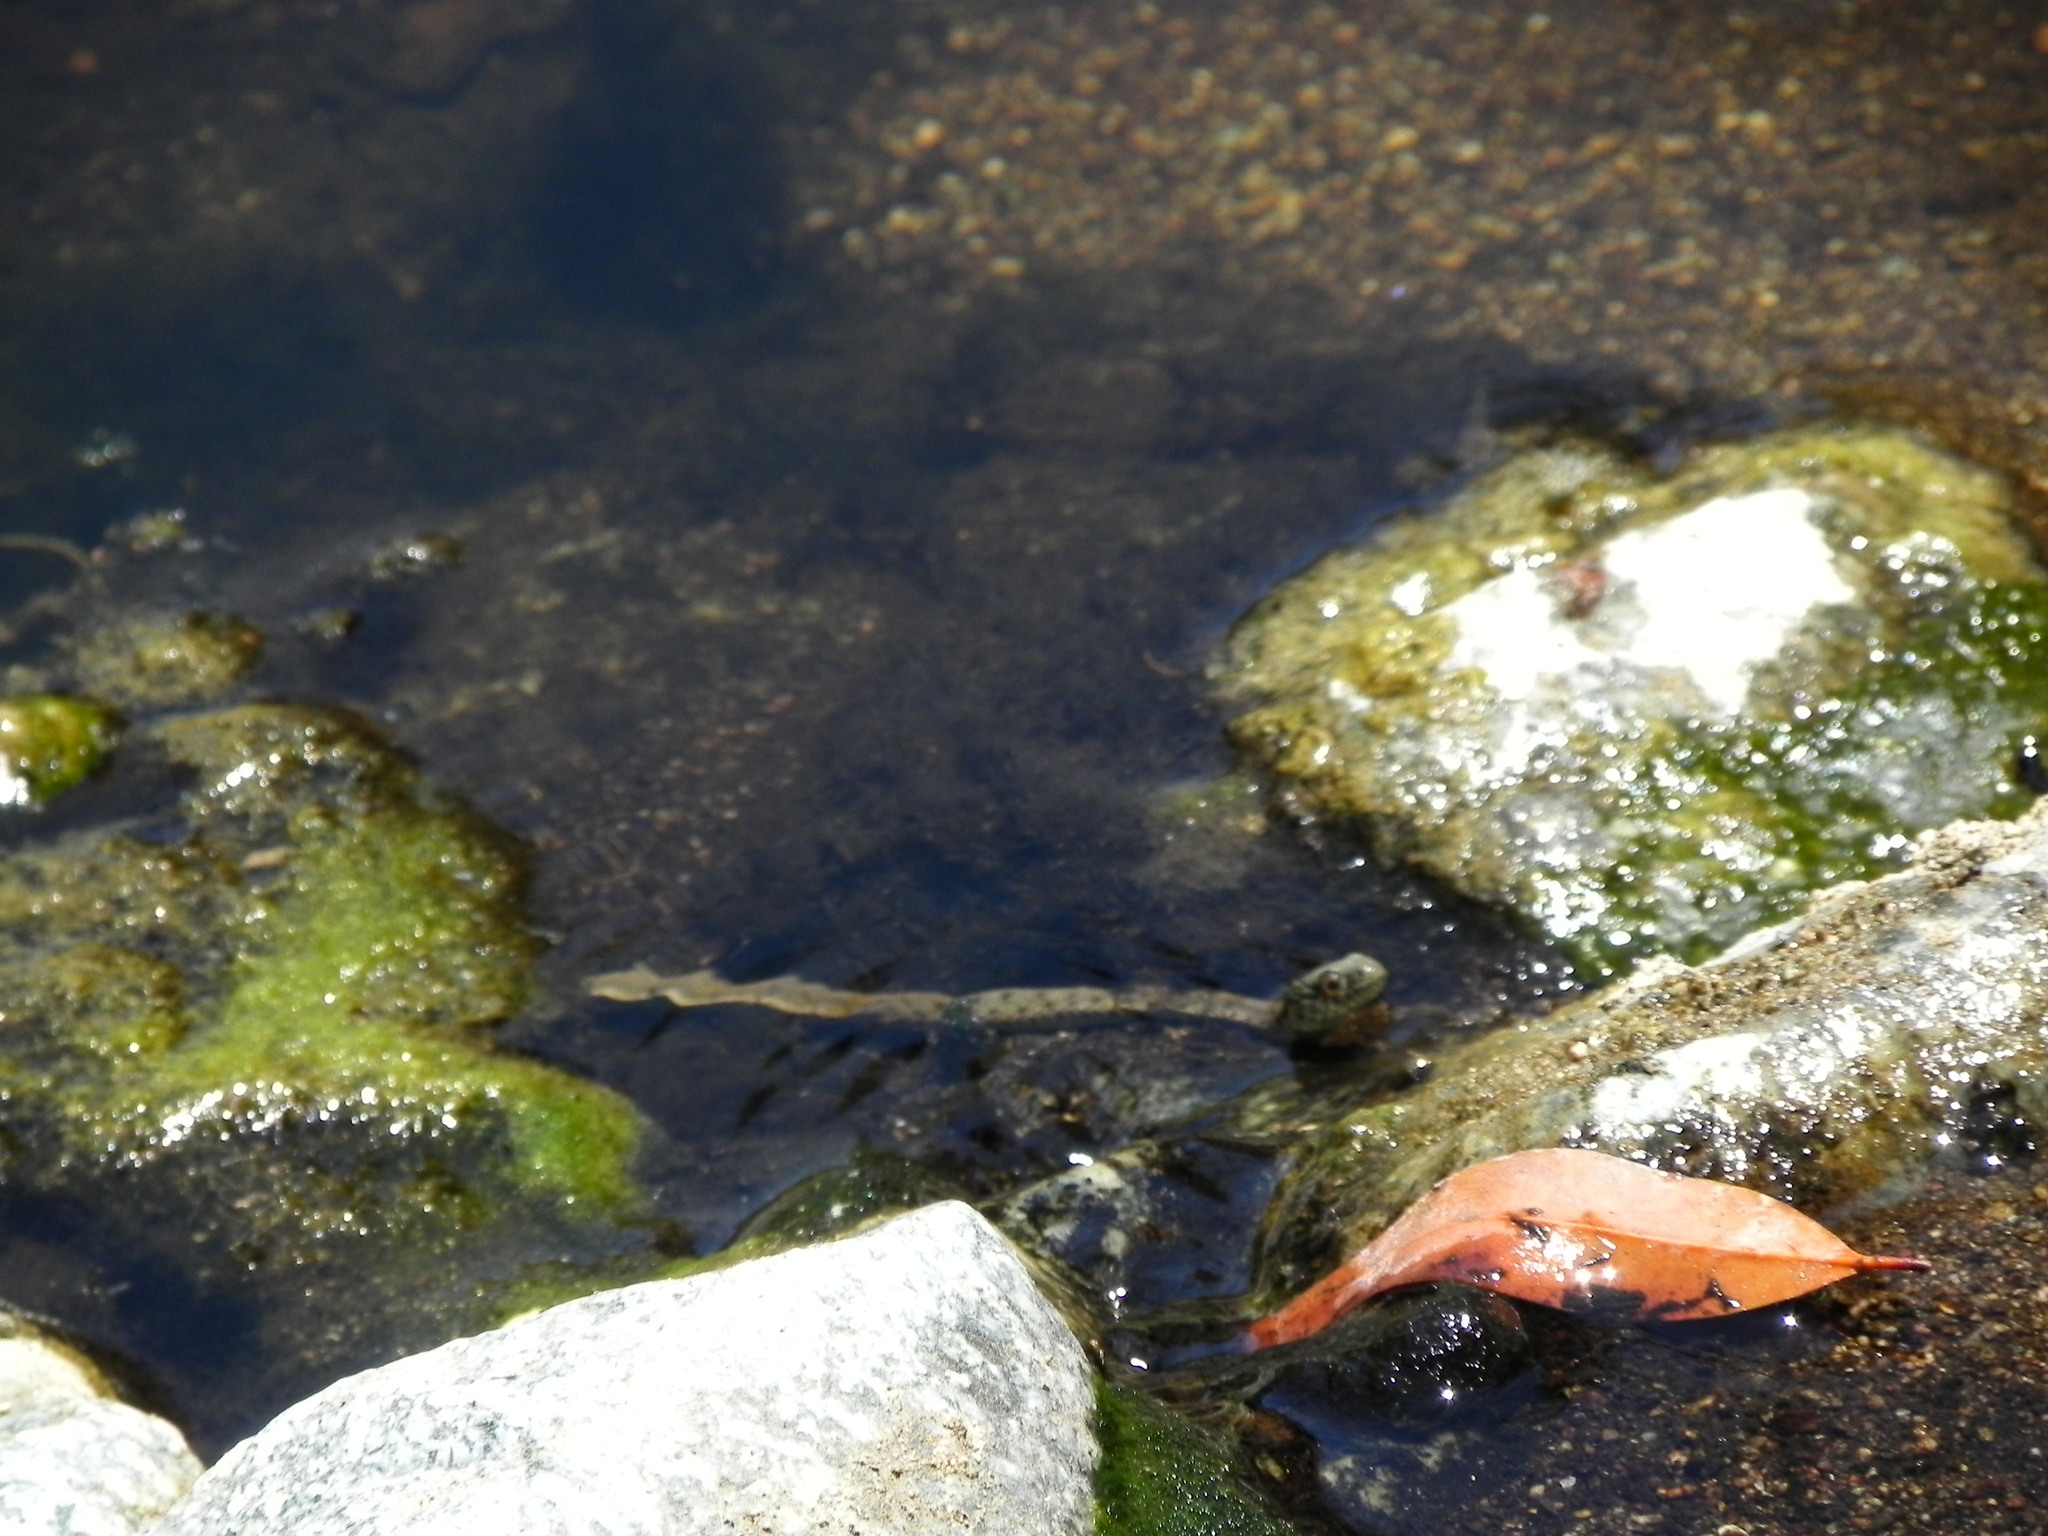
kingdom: Animalia
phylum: Chordata
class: Squamata
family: Colubridae
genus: Thamnophis
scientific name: Thamnophis hammondii
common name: Two-striped garter snake
